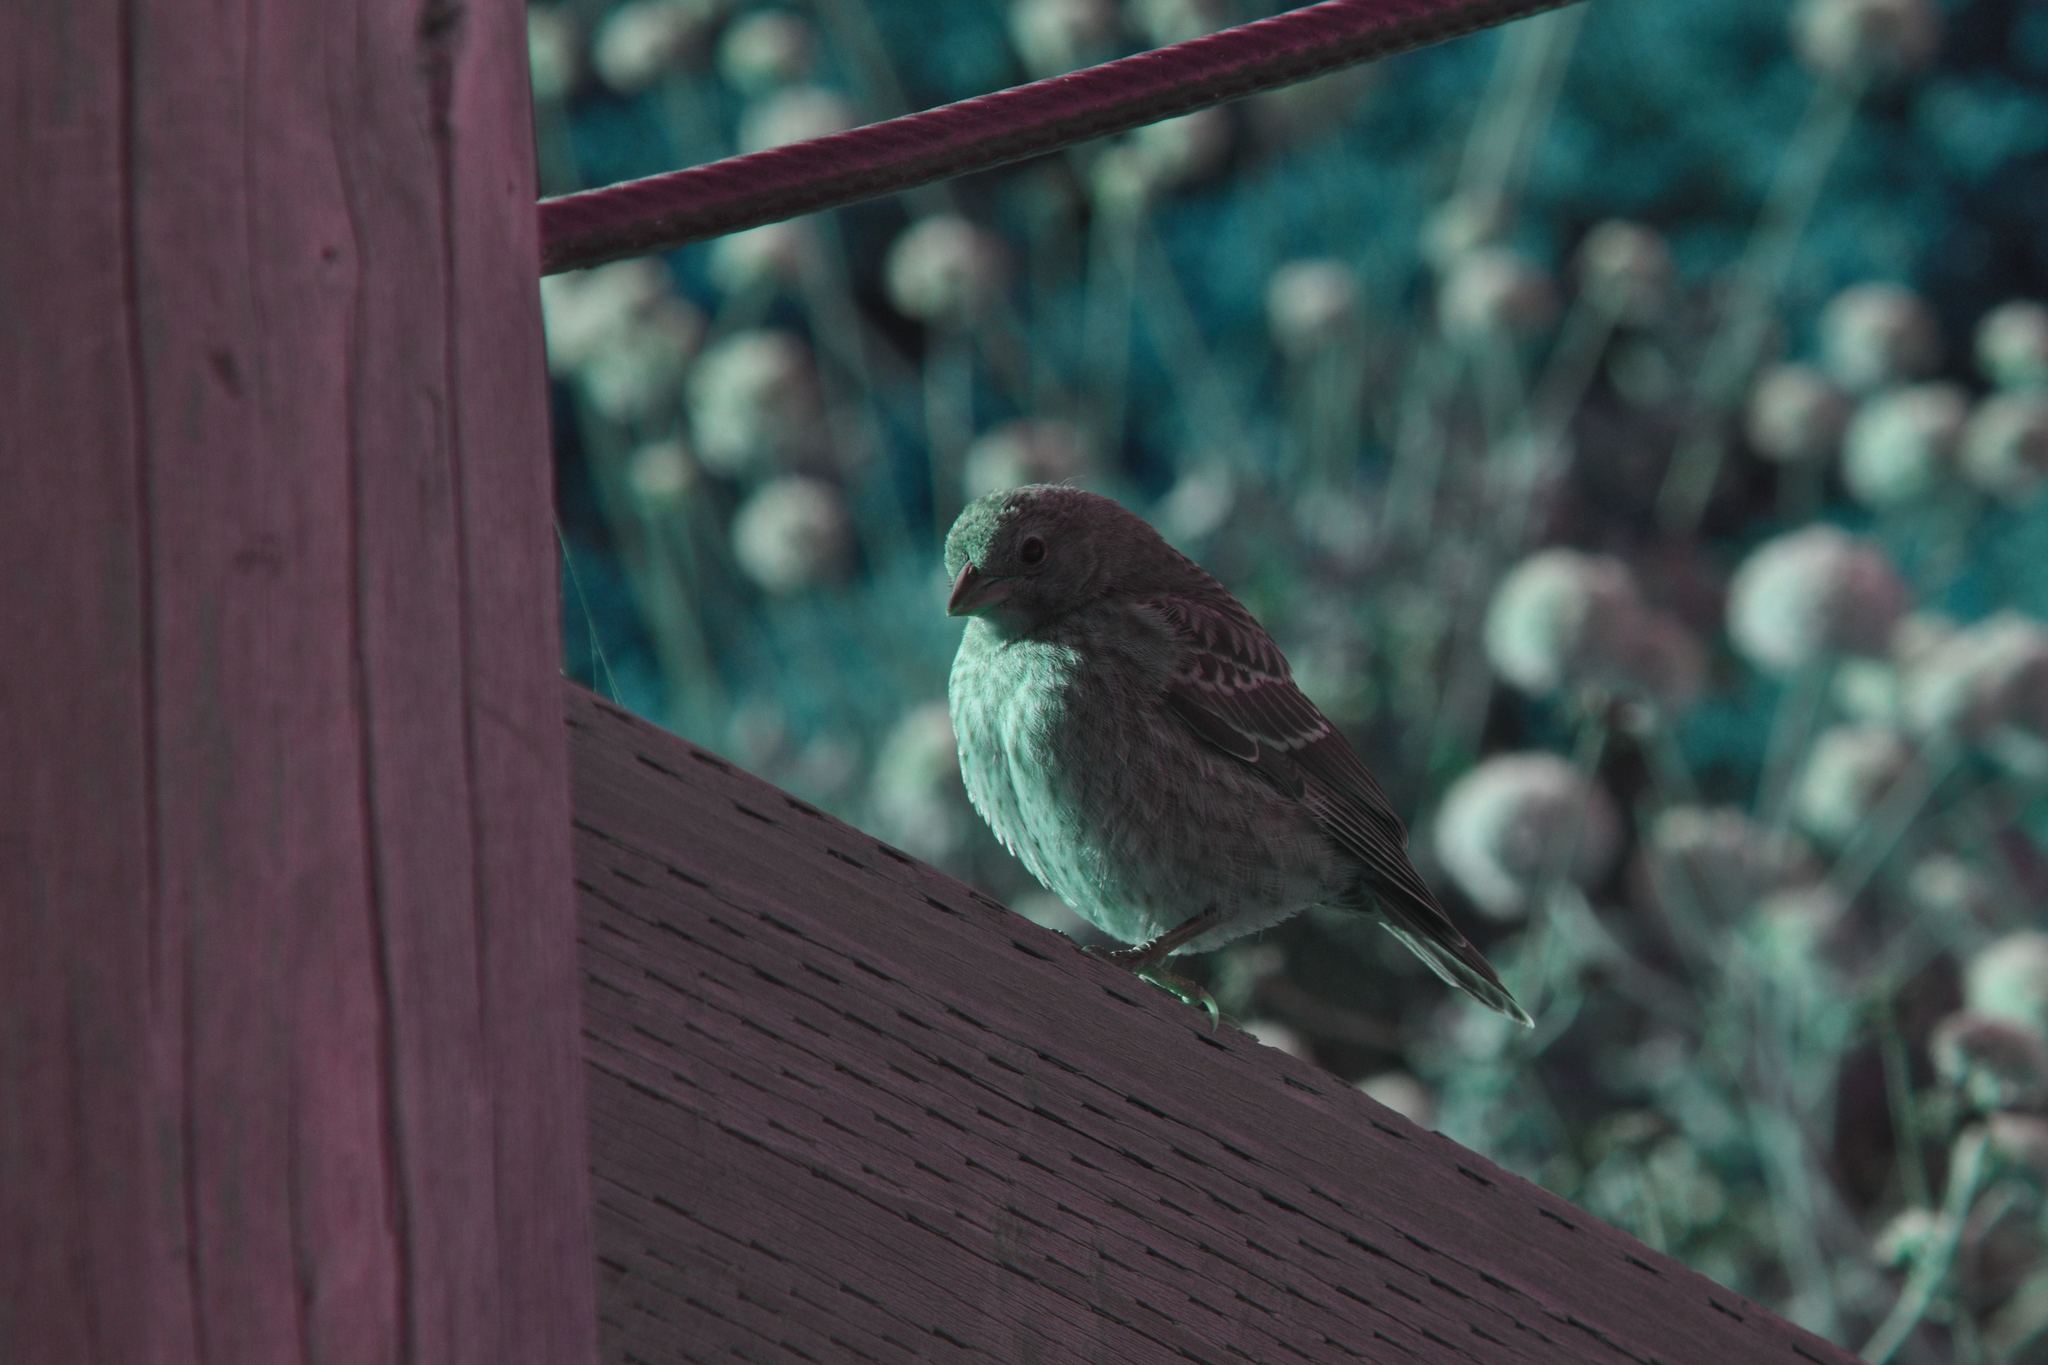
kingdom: Animalia
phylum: Chordata
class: Aves
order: Passeriformes
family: Icteridae
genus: Molothrus
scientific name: Molothrus ater
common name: Brown-headed cowbird
